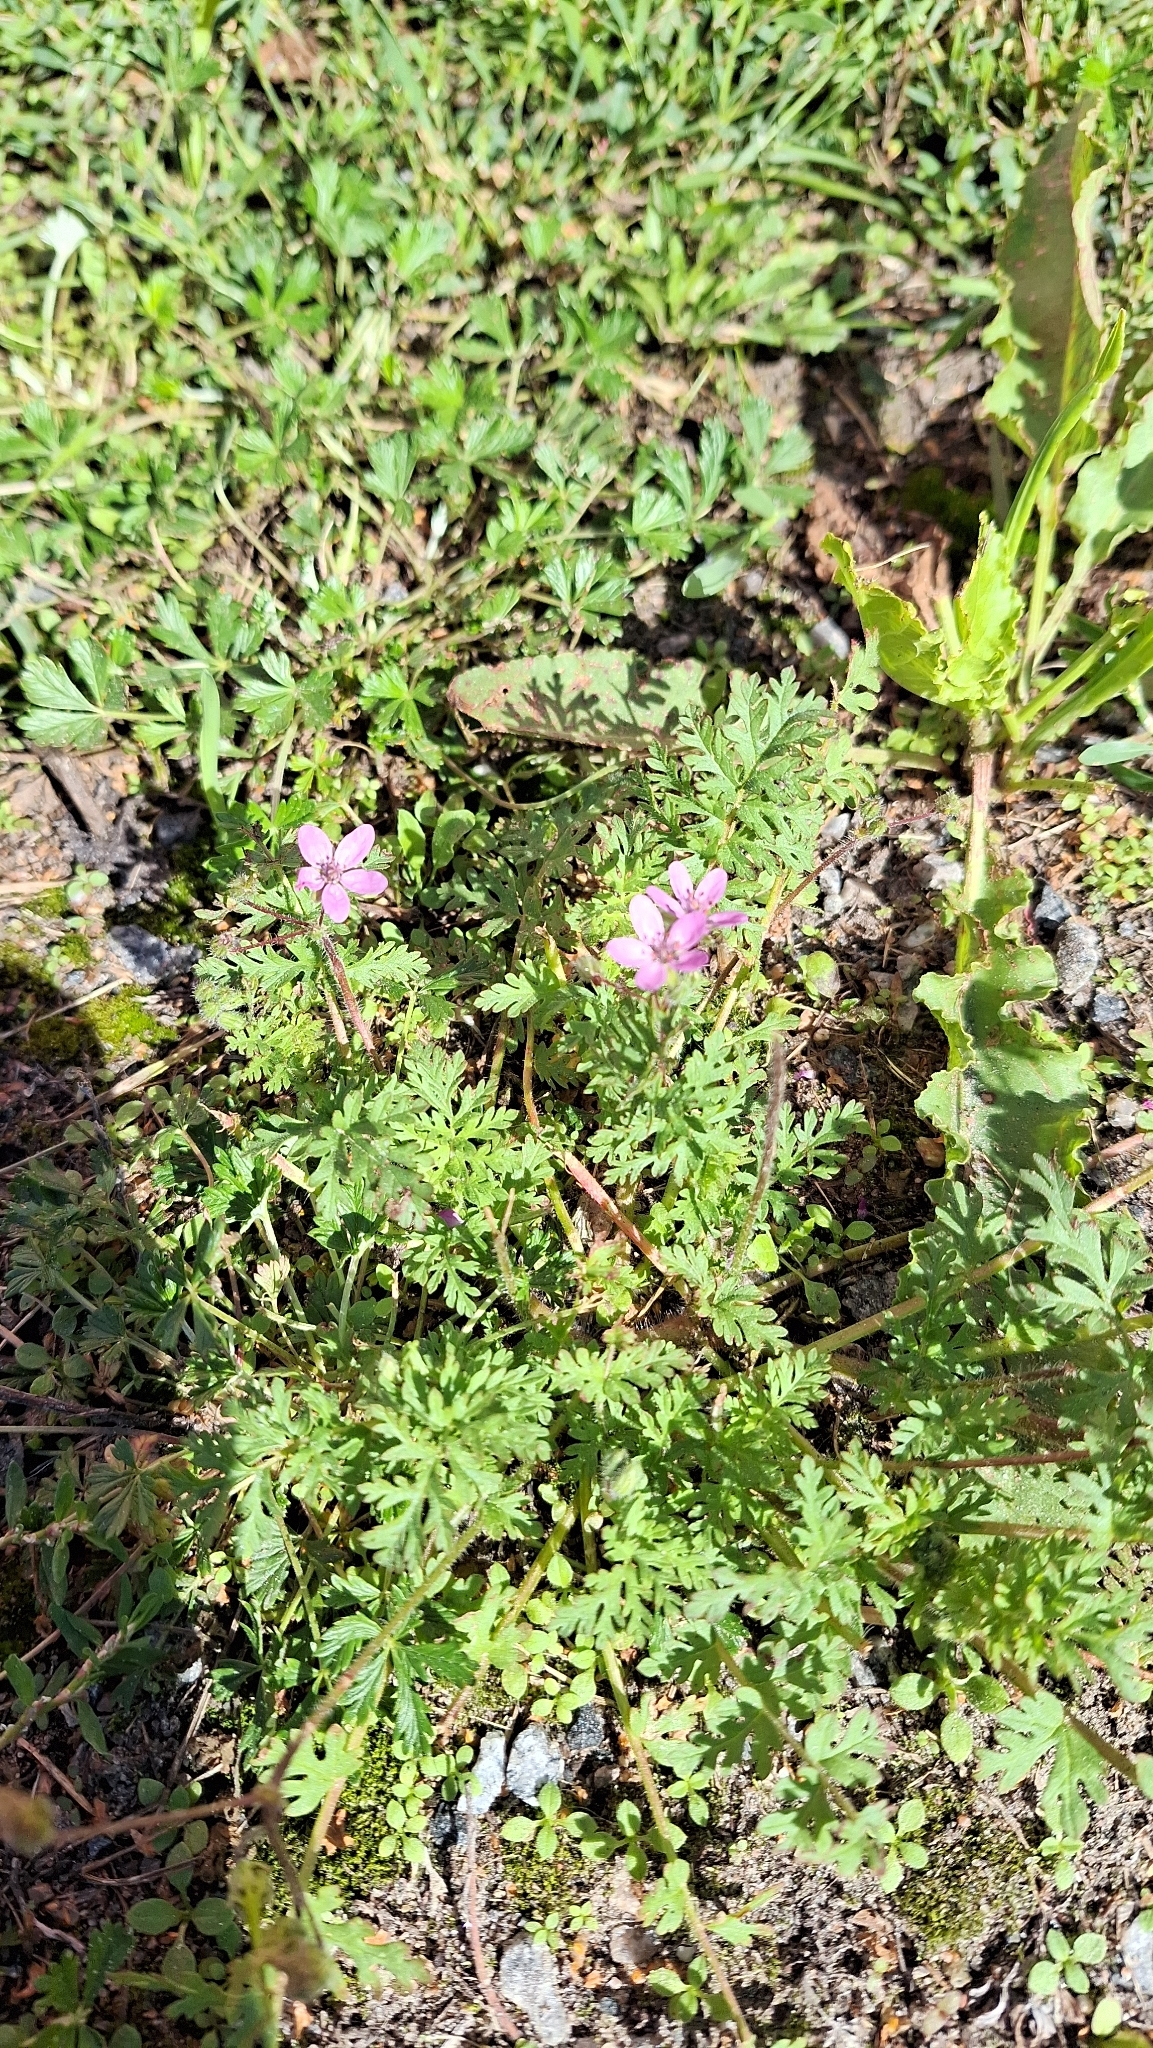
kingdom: Plantae
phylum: Tracheophyta
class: Magnoliopsida
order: Geraniales
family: Geraniaceae
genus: Erodium
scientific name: Erodium cicutarium
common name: Common stork's-bill
